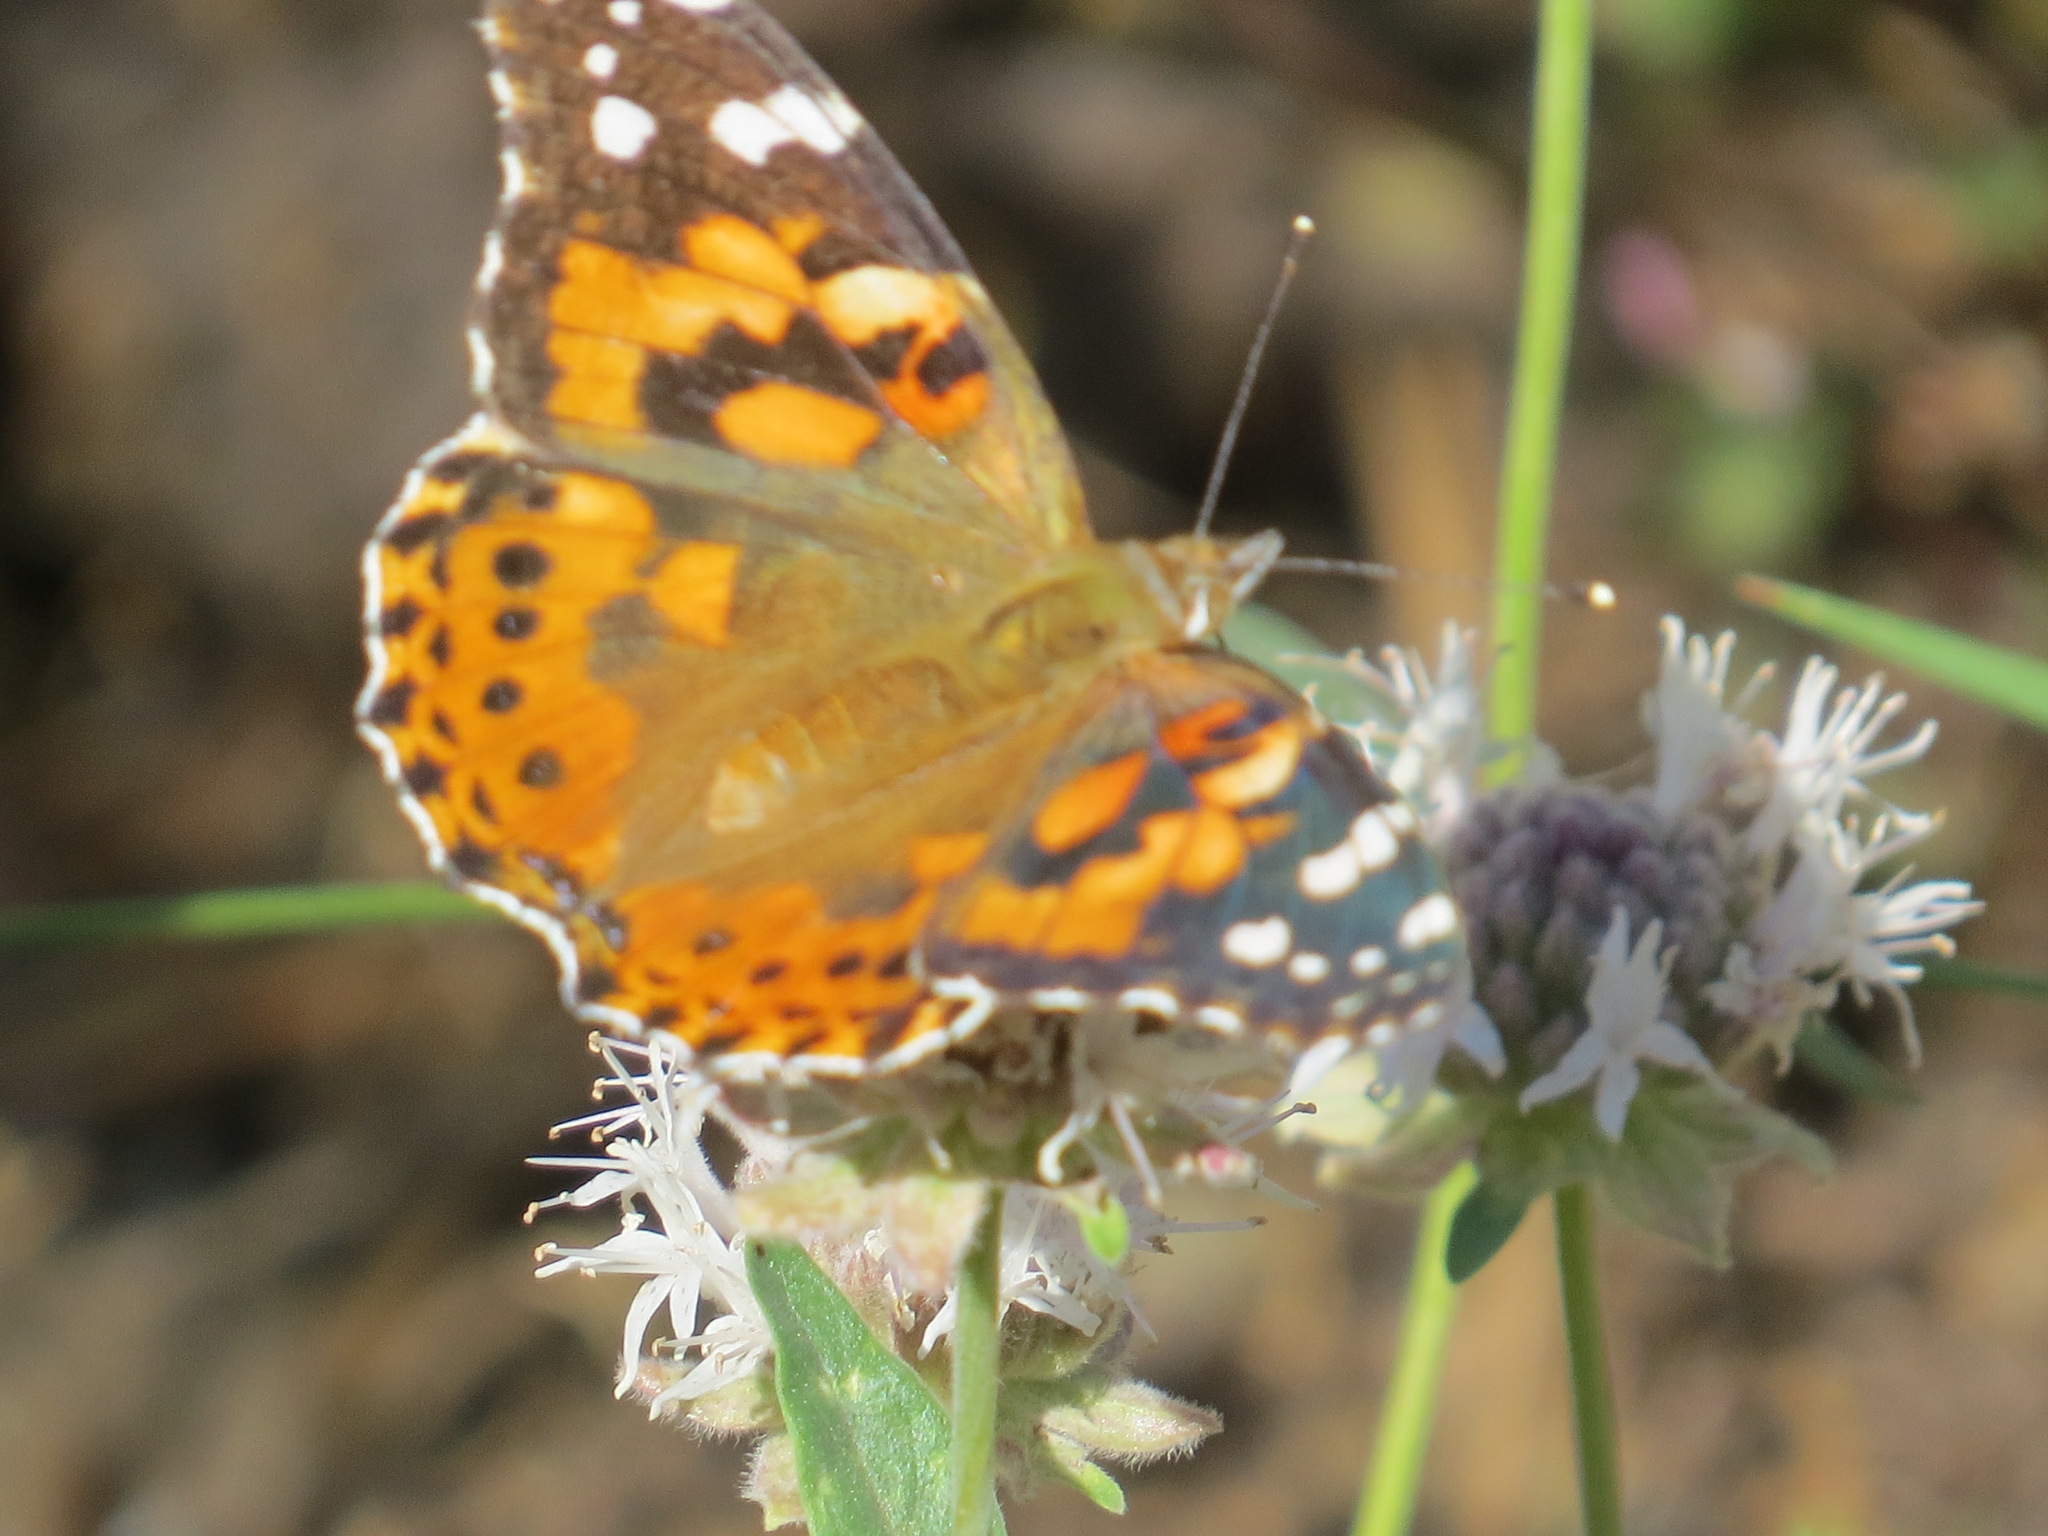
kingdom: Animalia
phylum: Arthropoda
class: Insecta
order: Lepidoptera
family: Nymphalidae
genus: Vanessa
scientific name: Vanessa cardui
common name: Painted lady
